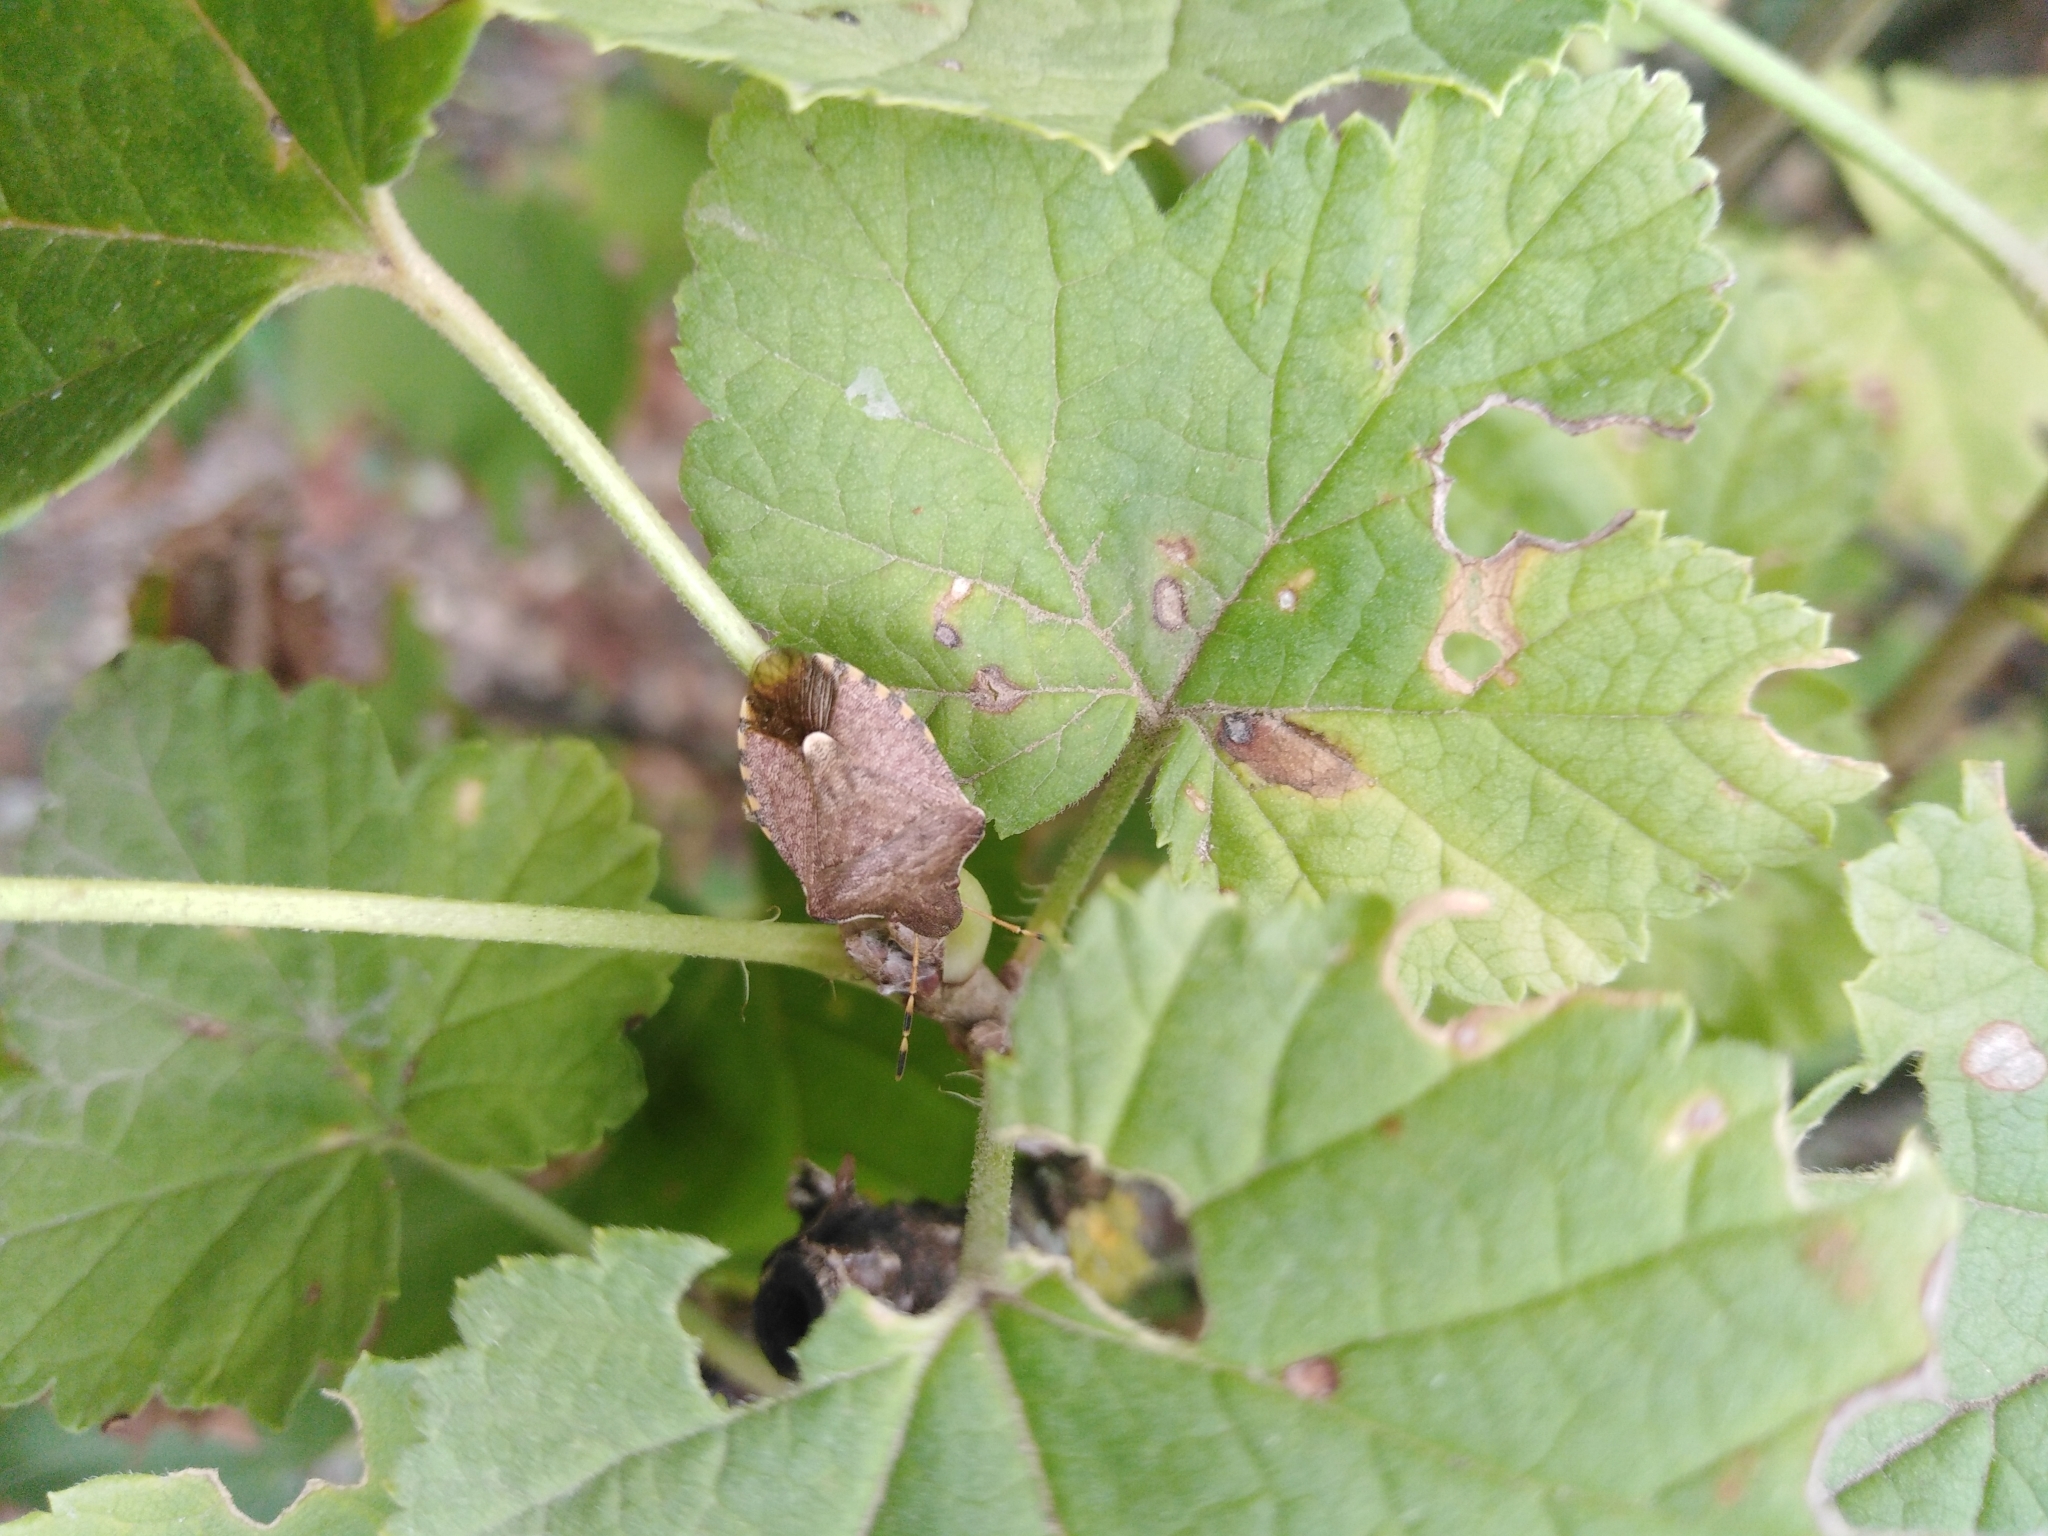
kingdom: Animalia
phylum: Arthropoda
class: Insecta
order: Hemiptera
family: Pentatomidae
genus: Holcostethus
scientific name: Holcostethus strictus
